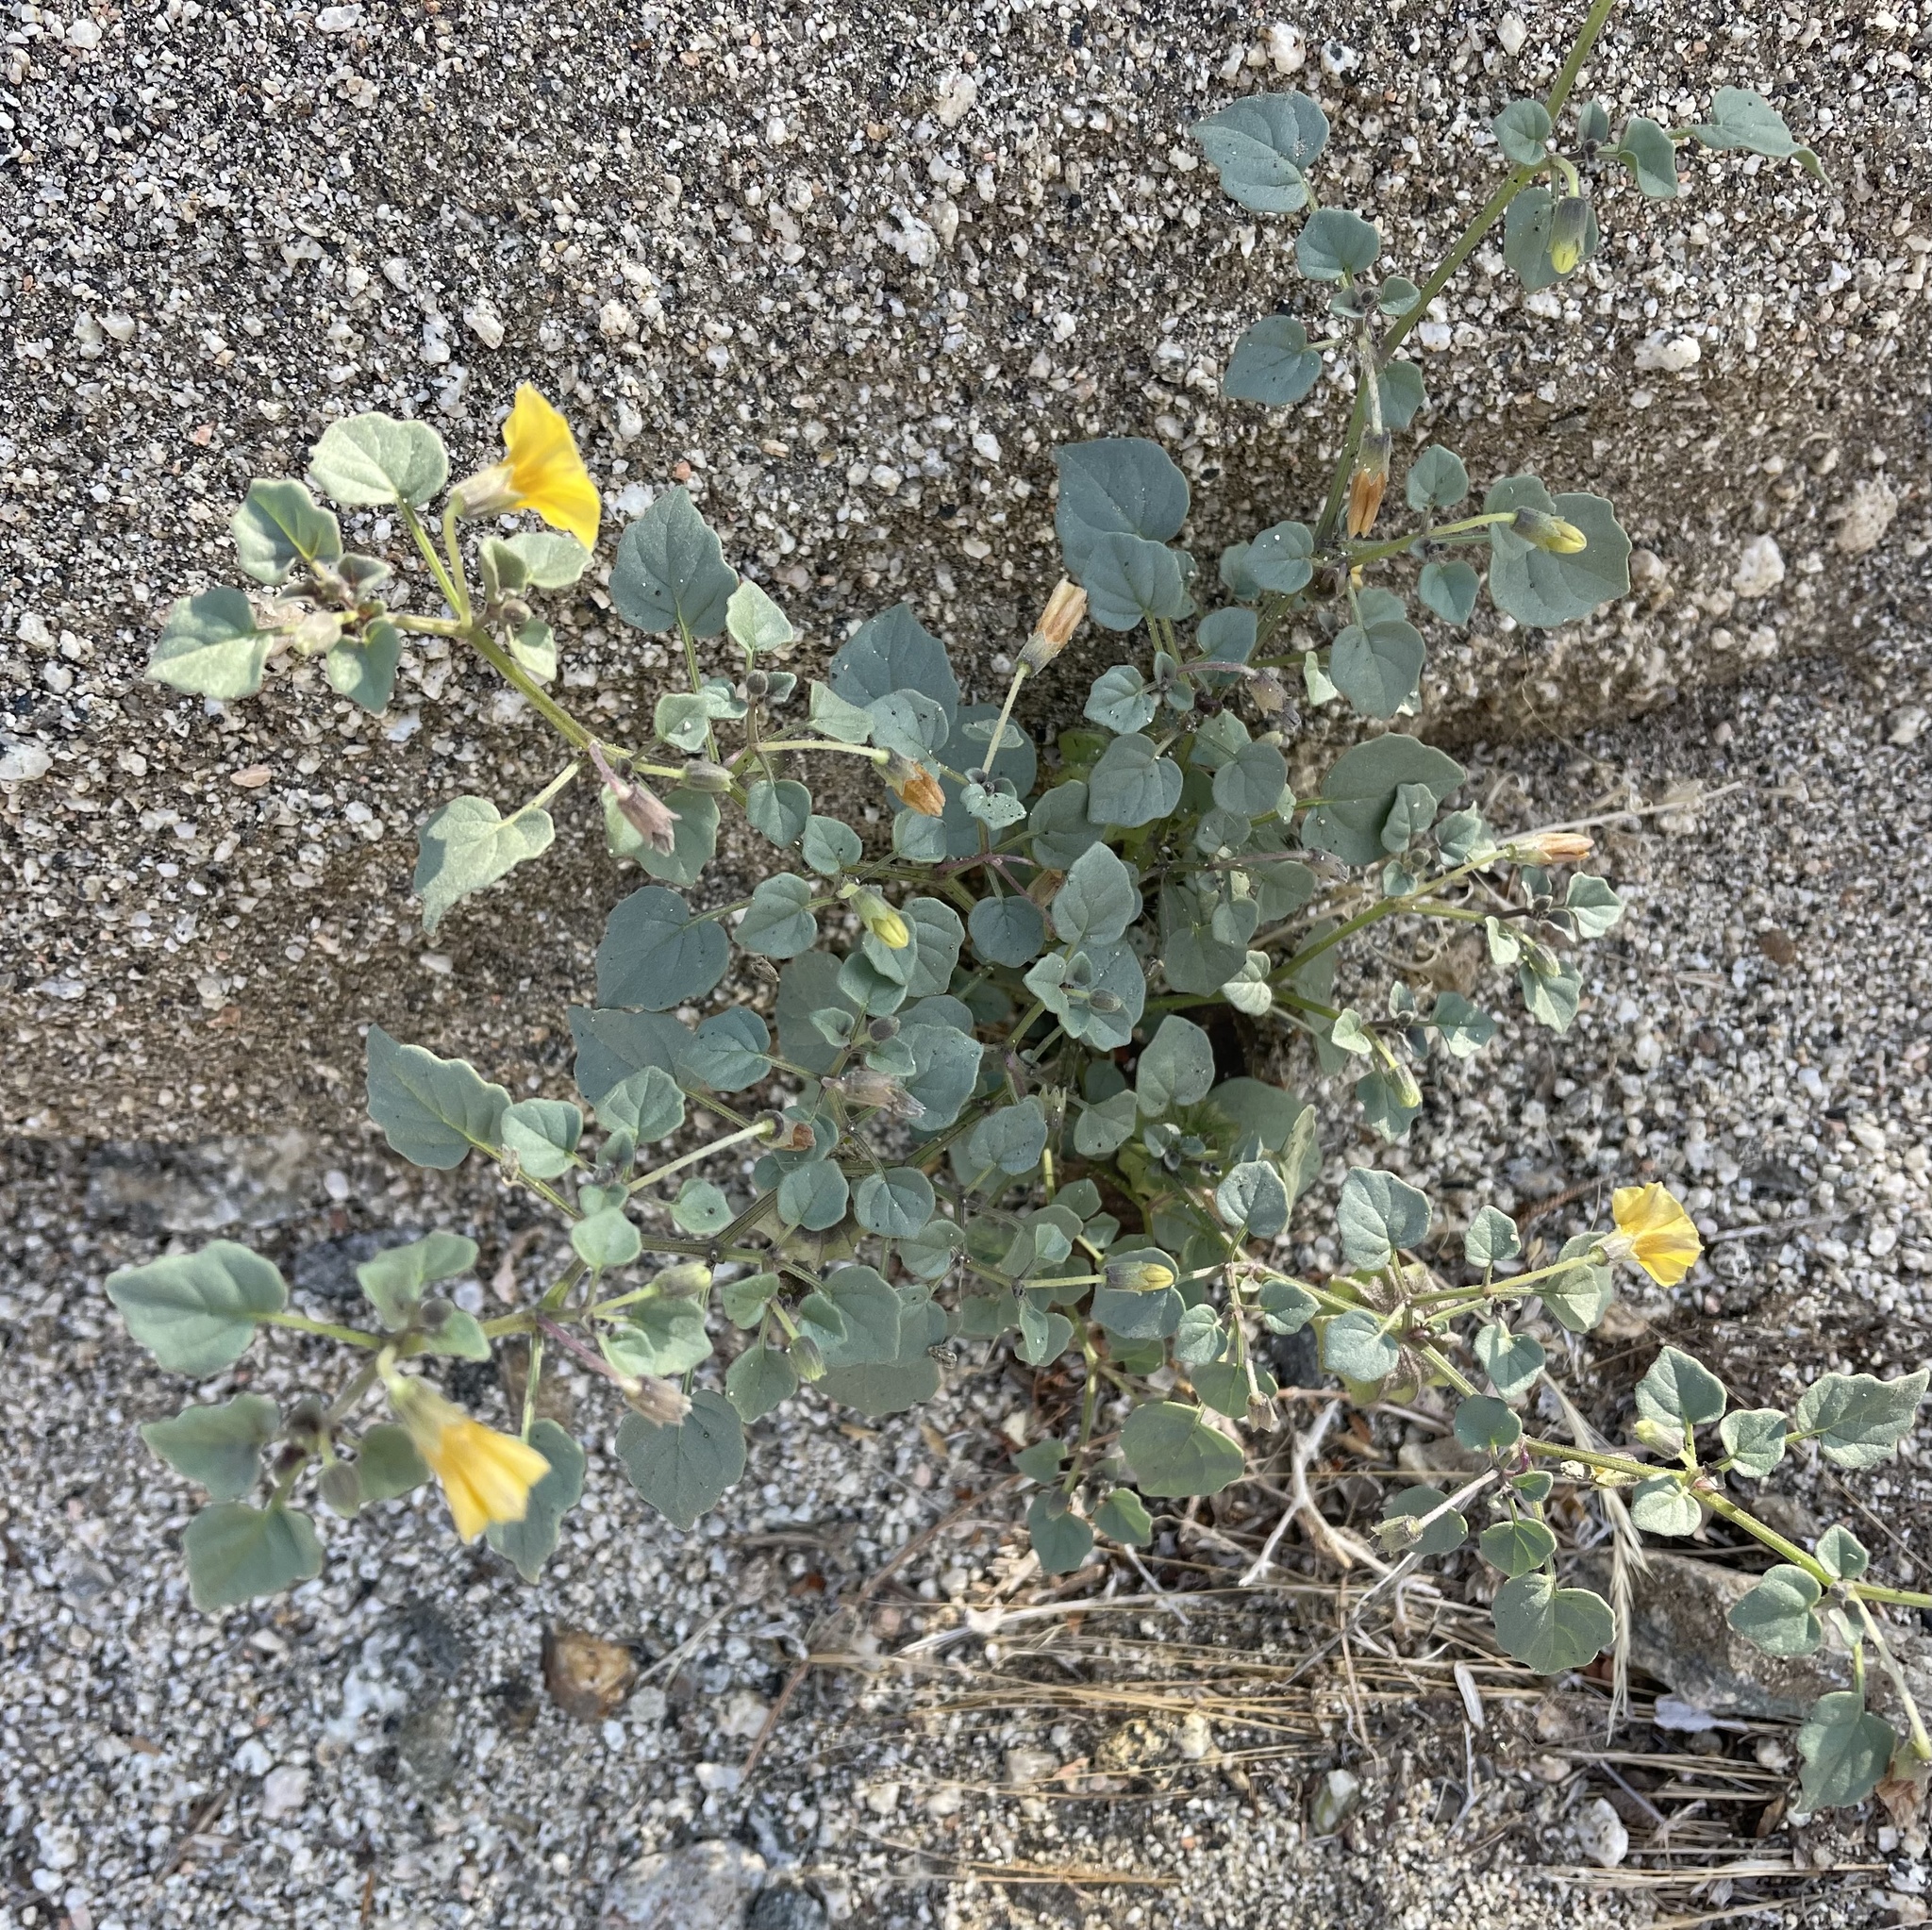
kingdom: Plantae
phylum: Tracheophyta
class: Magnoliopsida
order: Solanales
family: Solanaceae
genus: Physalis
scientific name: Physalis crassifolia
